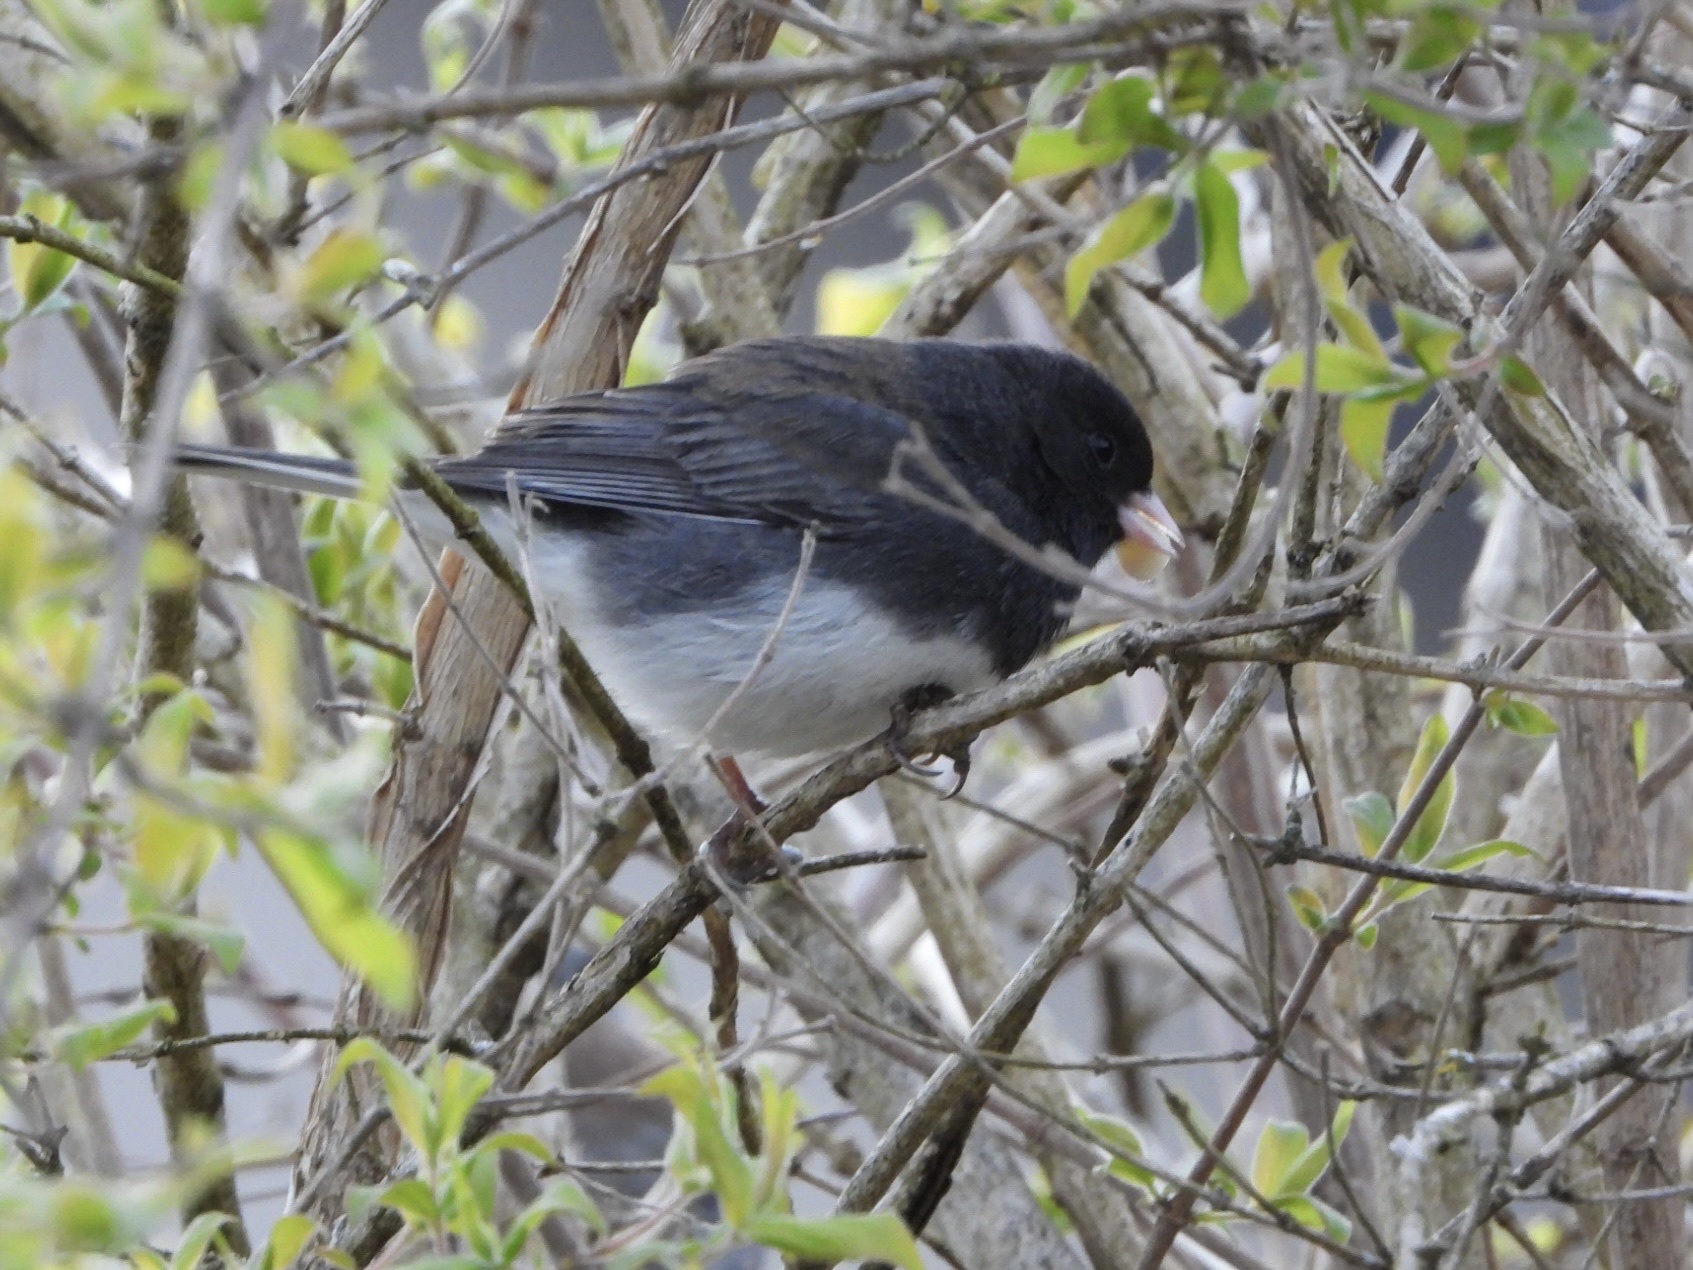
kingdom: Animalia
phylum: Chordata
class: Aves
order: Passeriformes
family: Passerellidae
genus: Junco
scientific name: Junco hyemalis
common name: Dark-eyed junco
